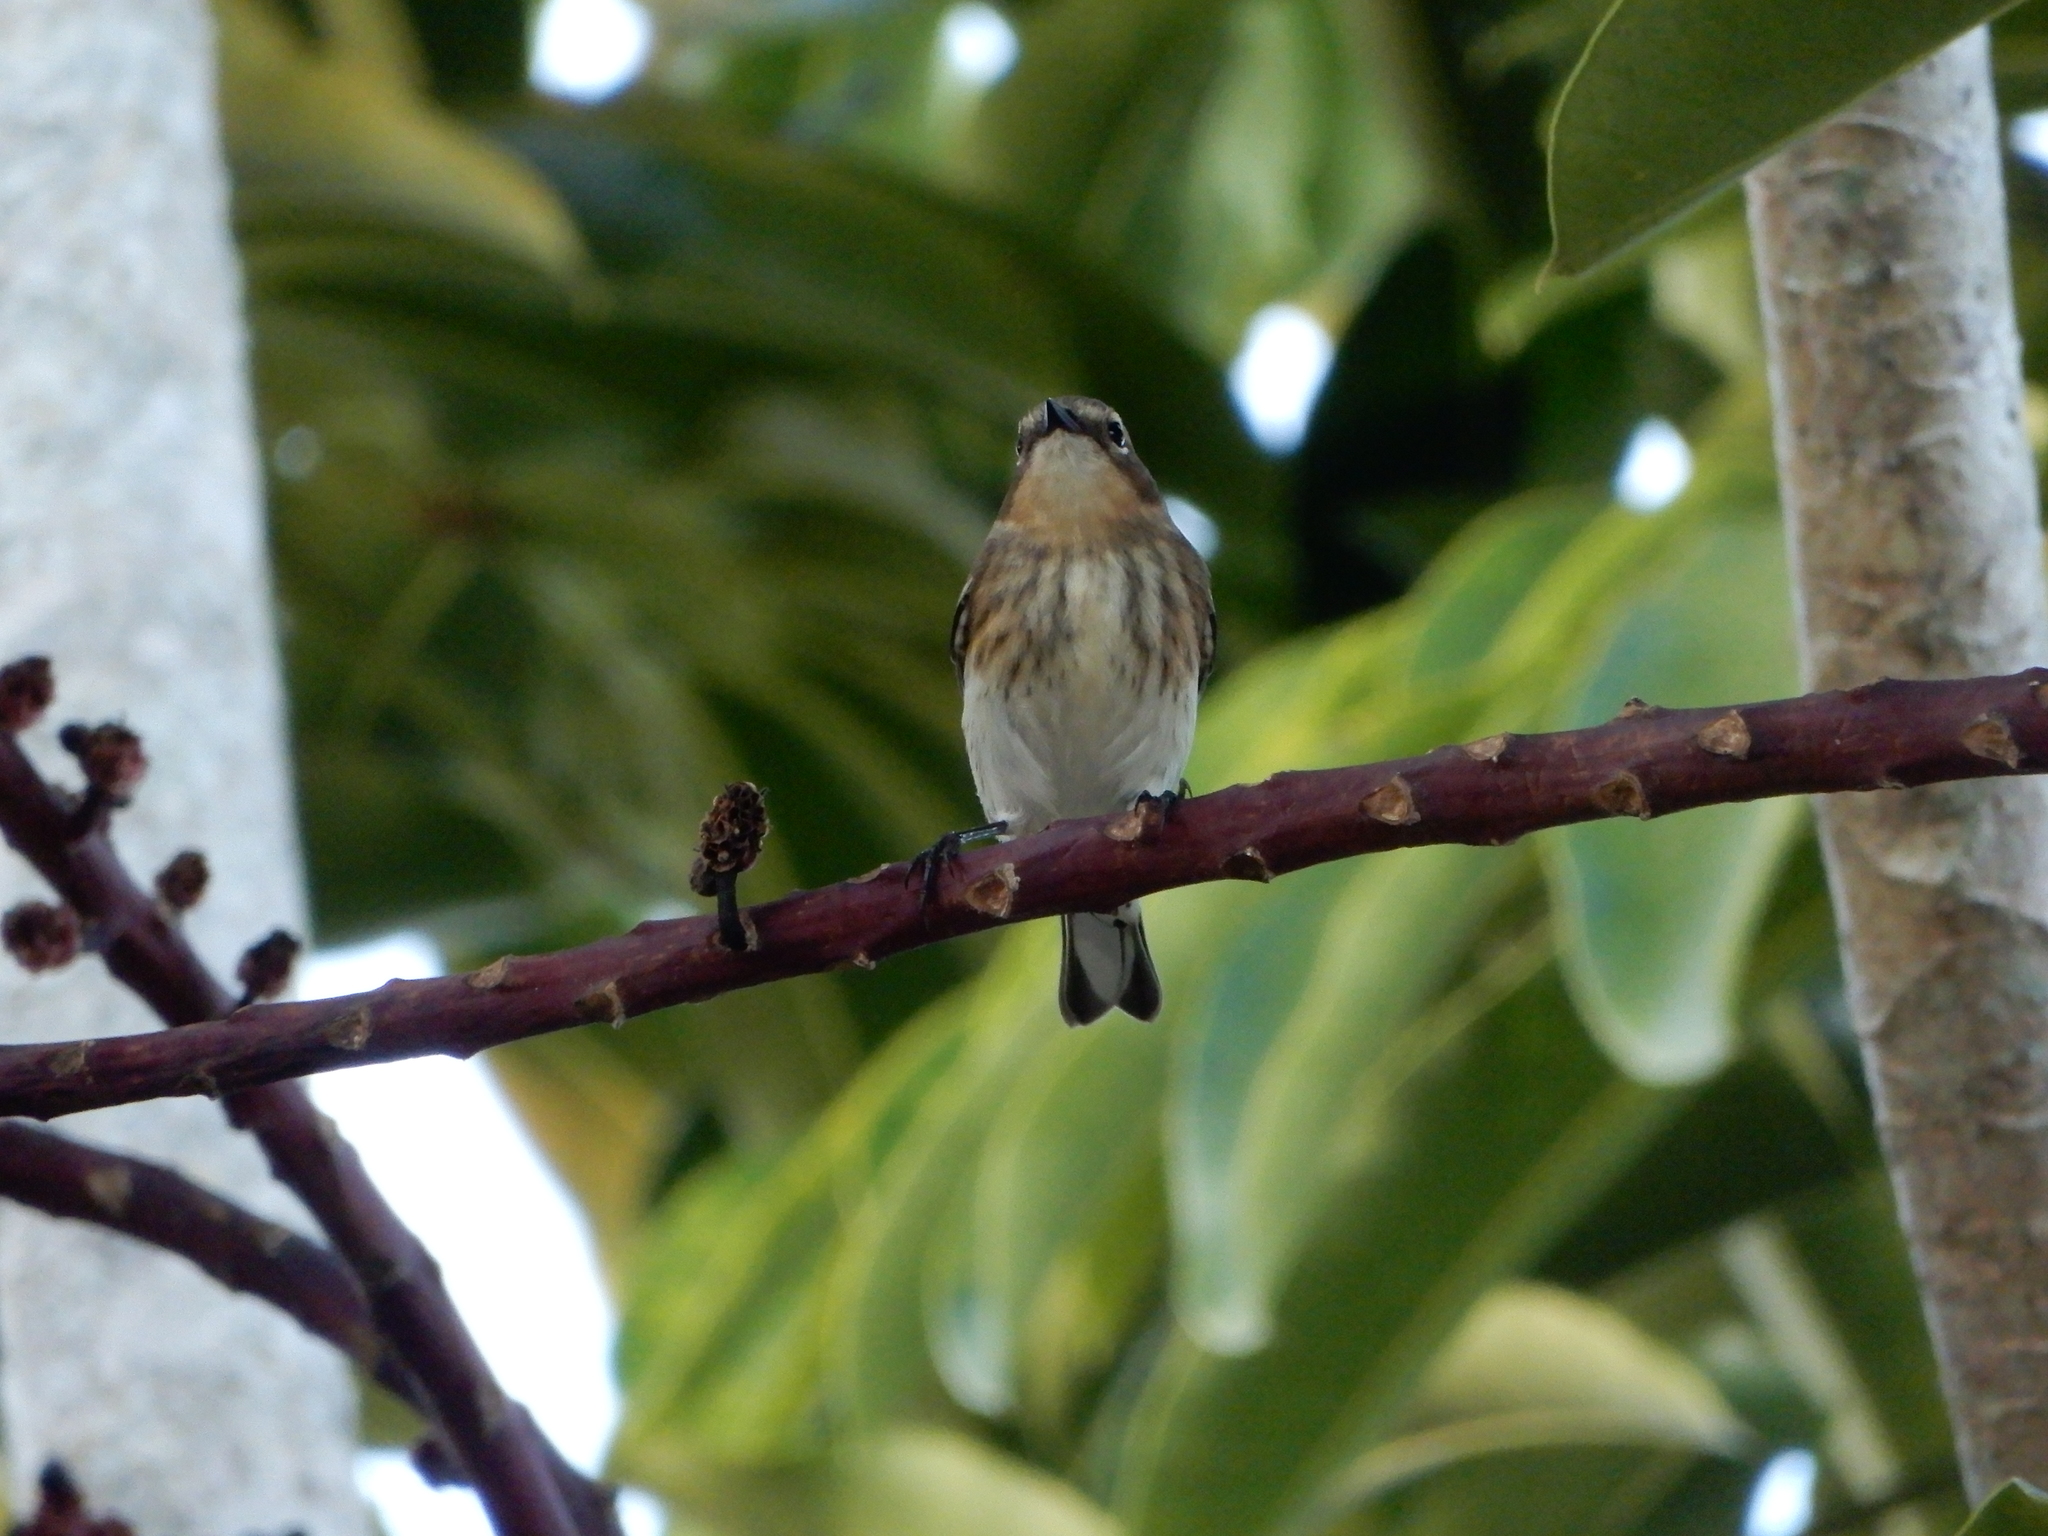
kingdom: Animalia
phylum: Chordata
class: Aves
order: Passeriformes
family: Parulidae
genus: Setophaga
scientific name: Setophaga coronata
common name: Myrtle warbler
